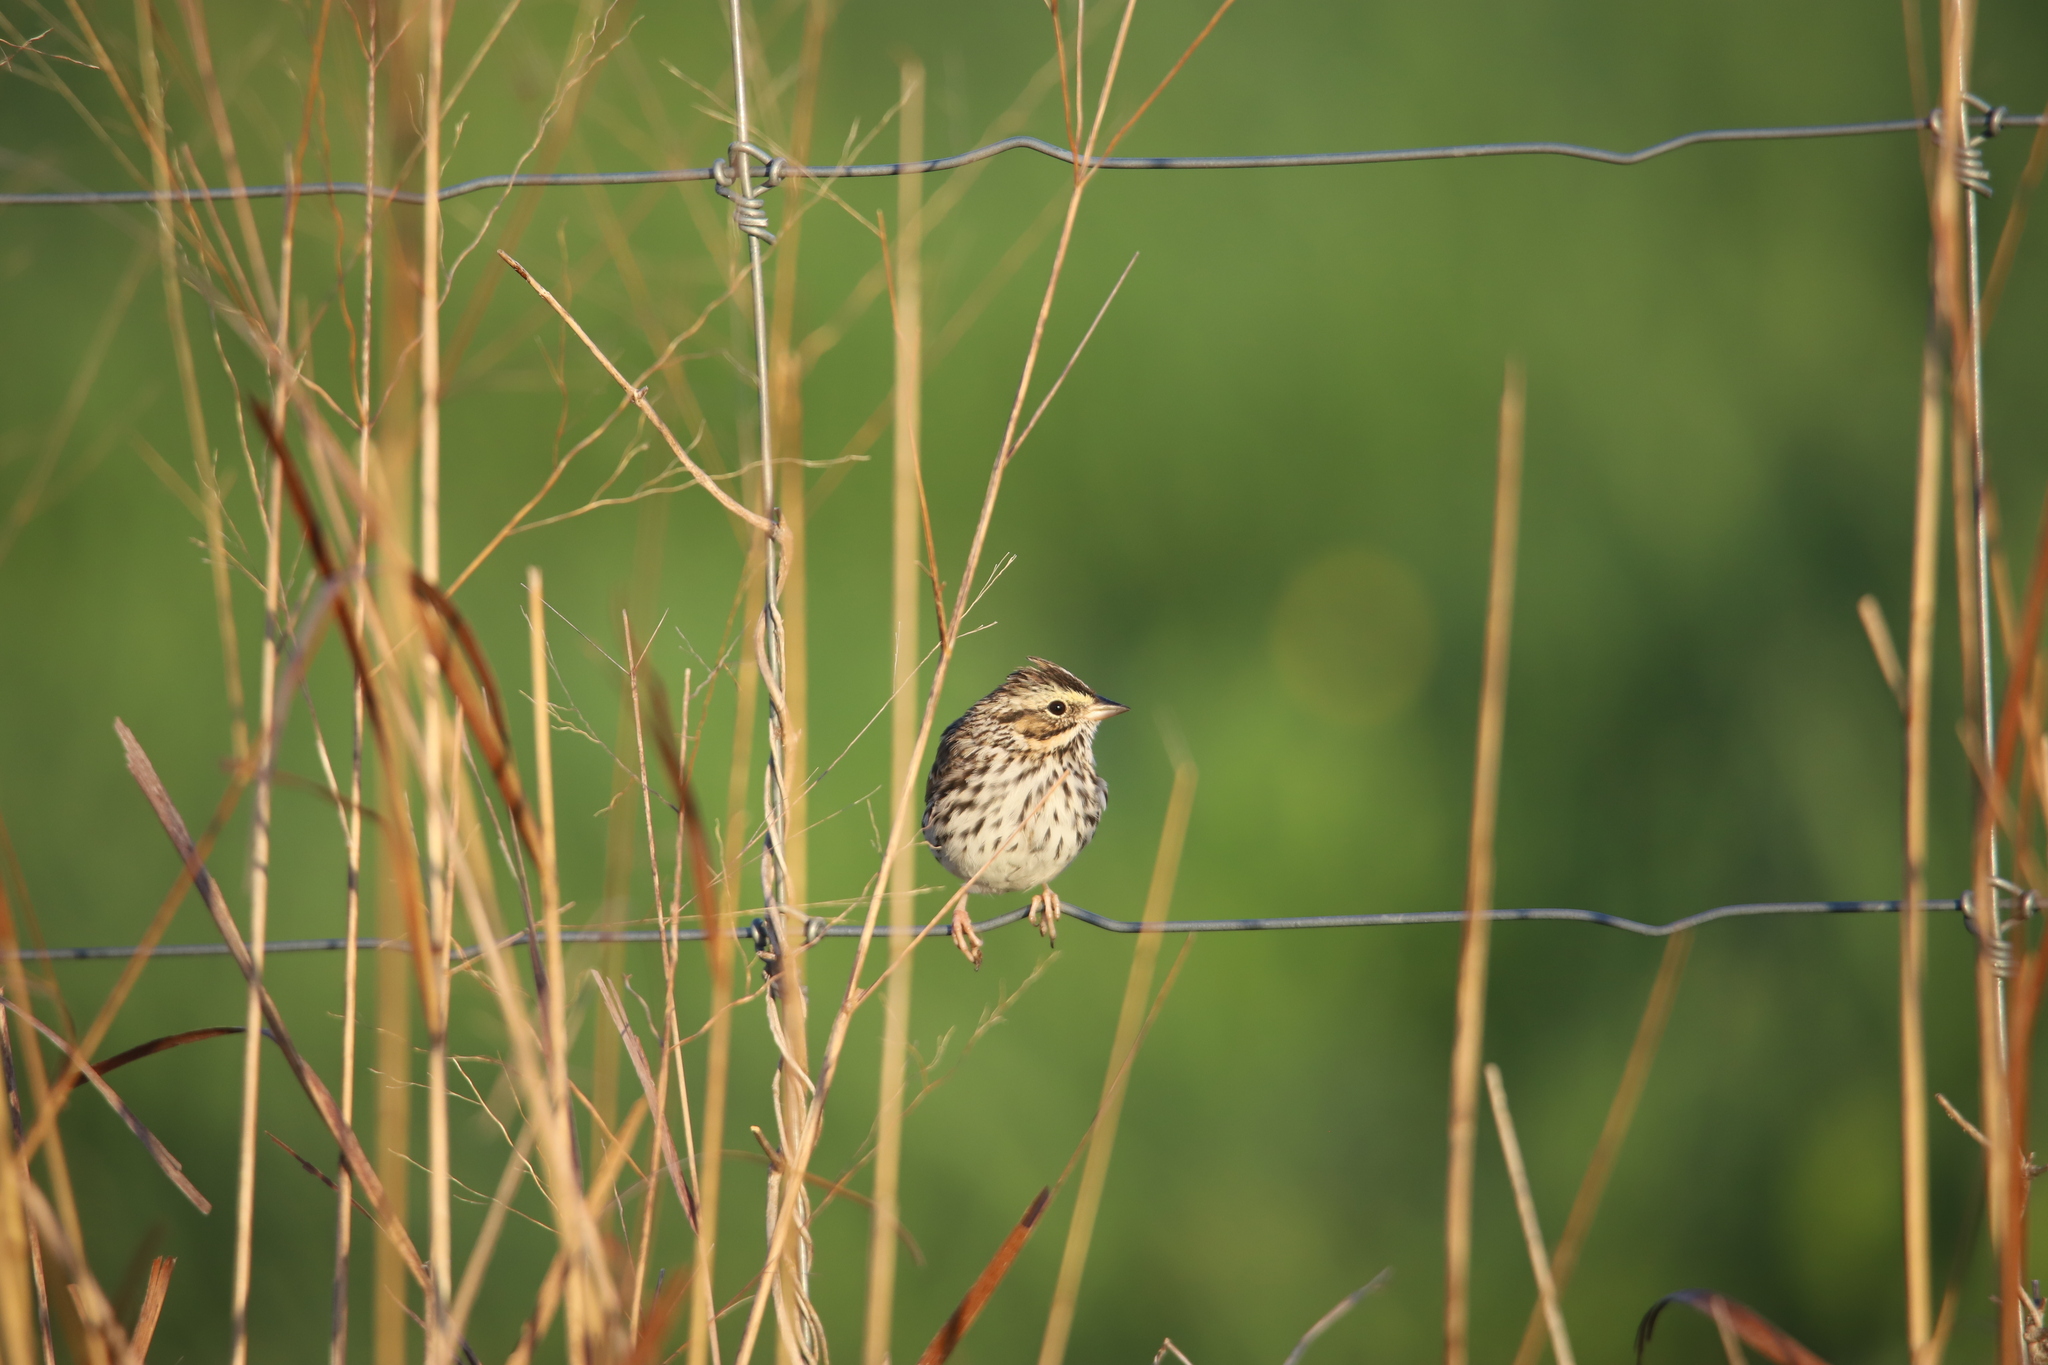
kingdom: Animalia
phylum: Chordata
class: Aves
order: Passeriformes
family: Passerellidae
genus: Passerculus
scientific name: Passerculus sandwichensis
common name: Savannah sparrow
